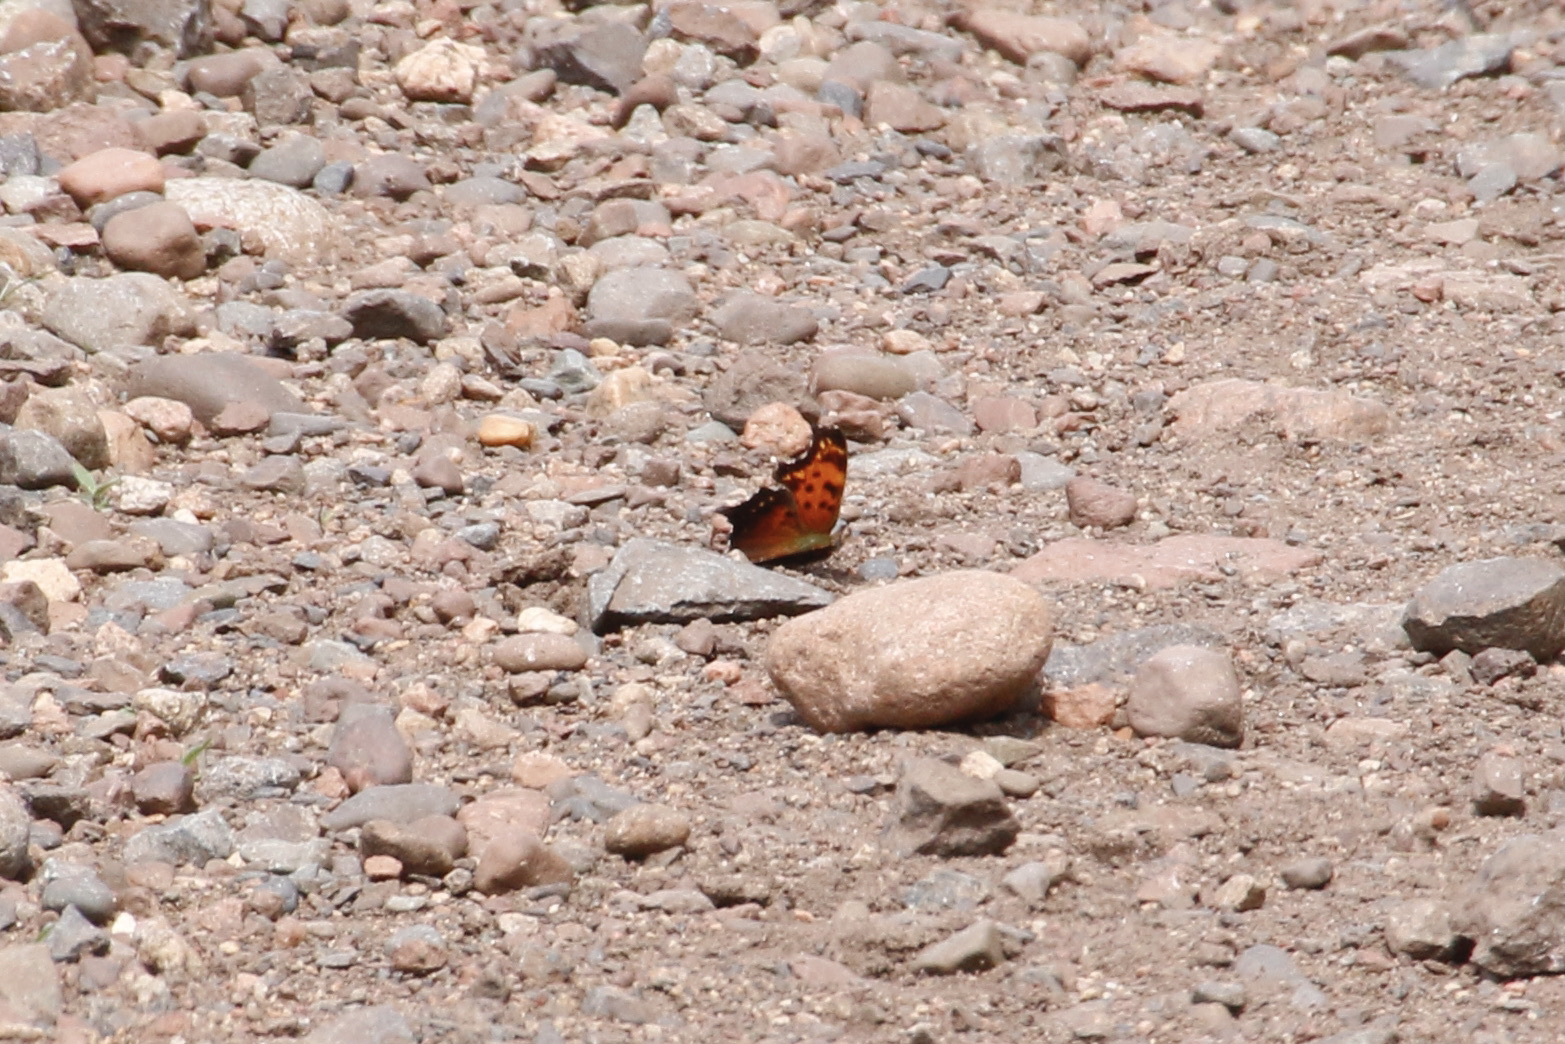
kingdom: Animalia
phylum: Arthropoda
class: Insecta
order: Lepidoptera
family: Nymphalidae
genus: Polygonia
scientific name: Polygonia progne
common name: Gray comma
